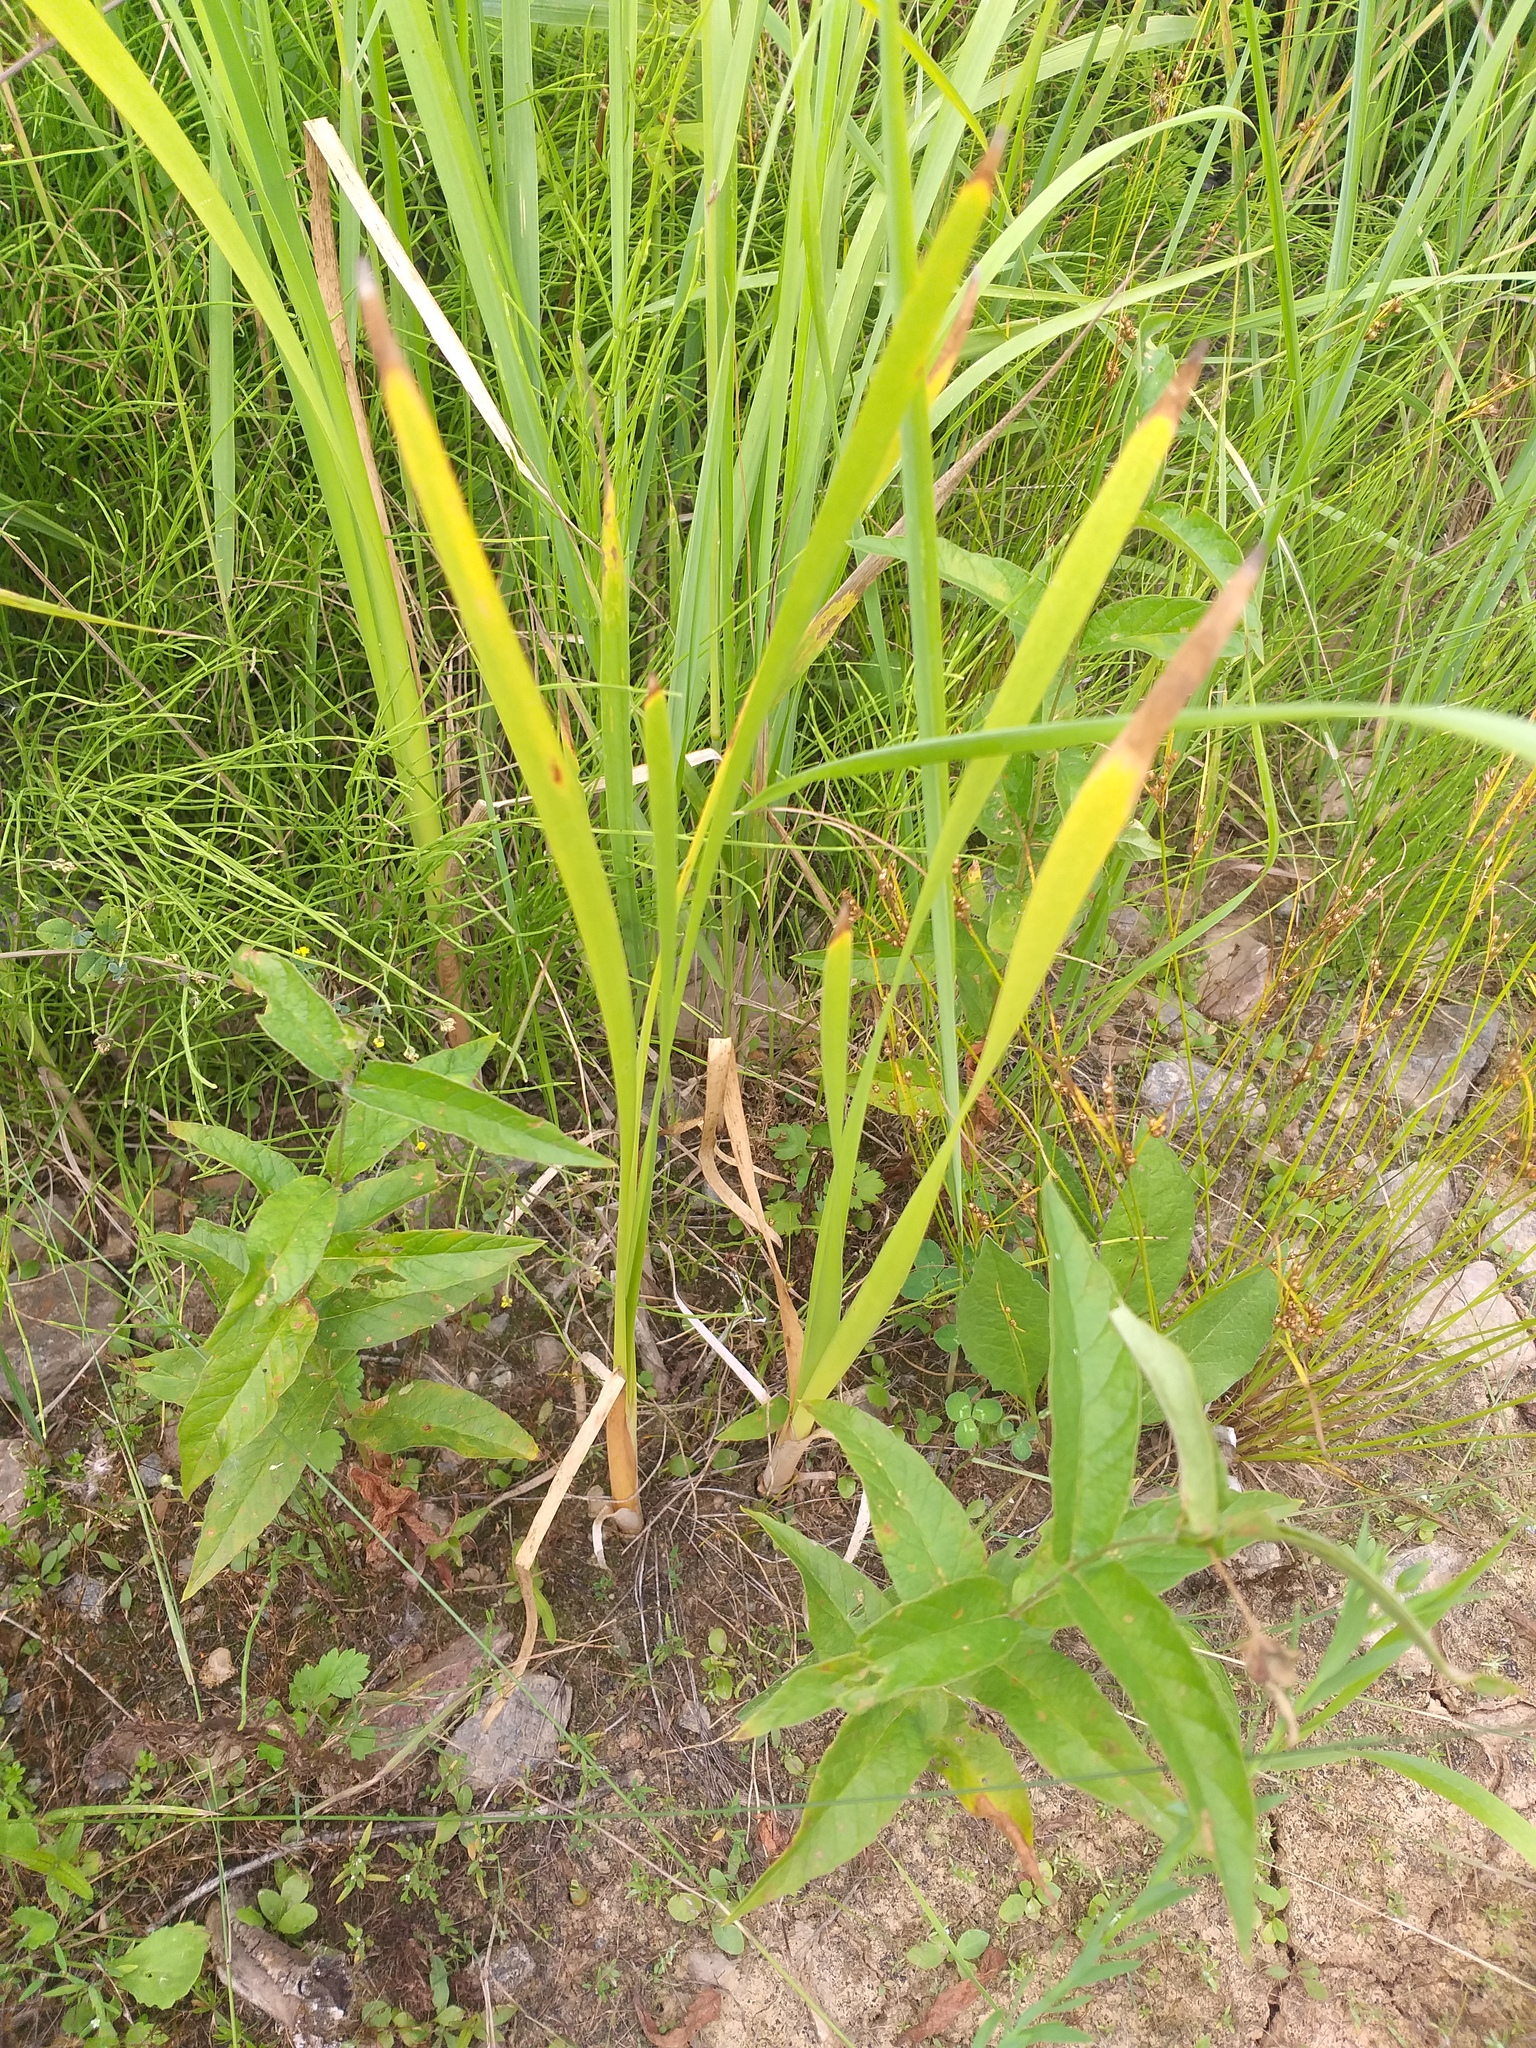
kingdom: Plantae
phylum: Tracheophyta
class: Liliopsida
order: Poales
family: Typhaceae
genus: Typha
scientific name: Typha latifolia
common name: Broadleaf cattail
